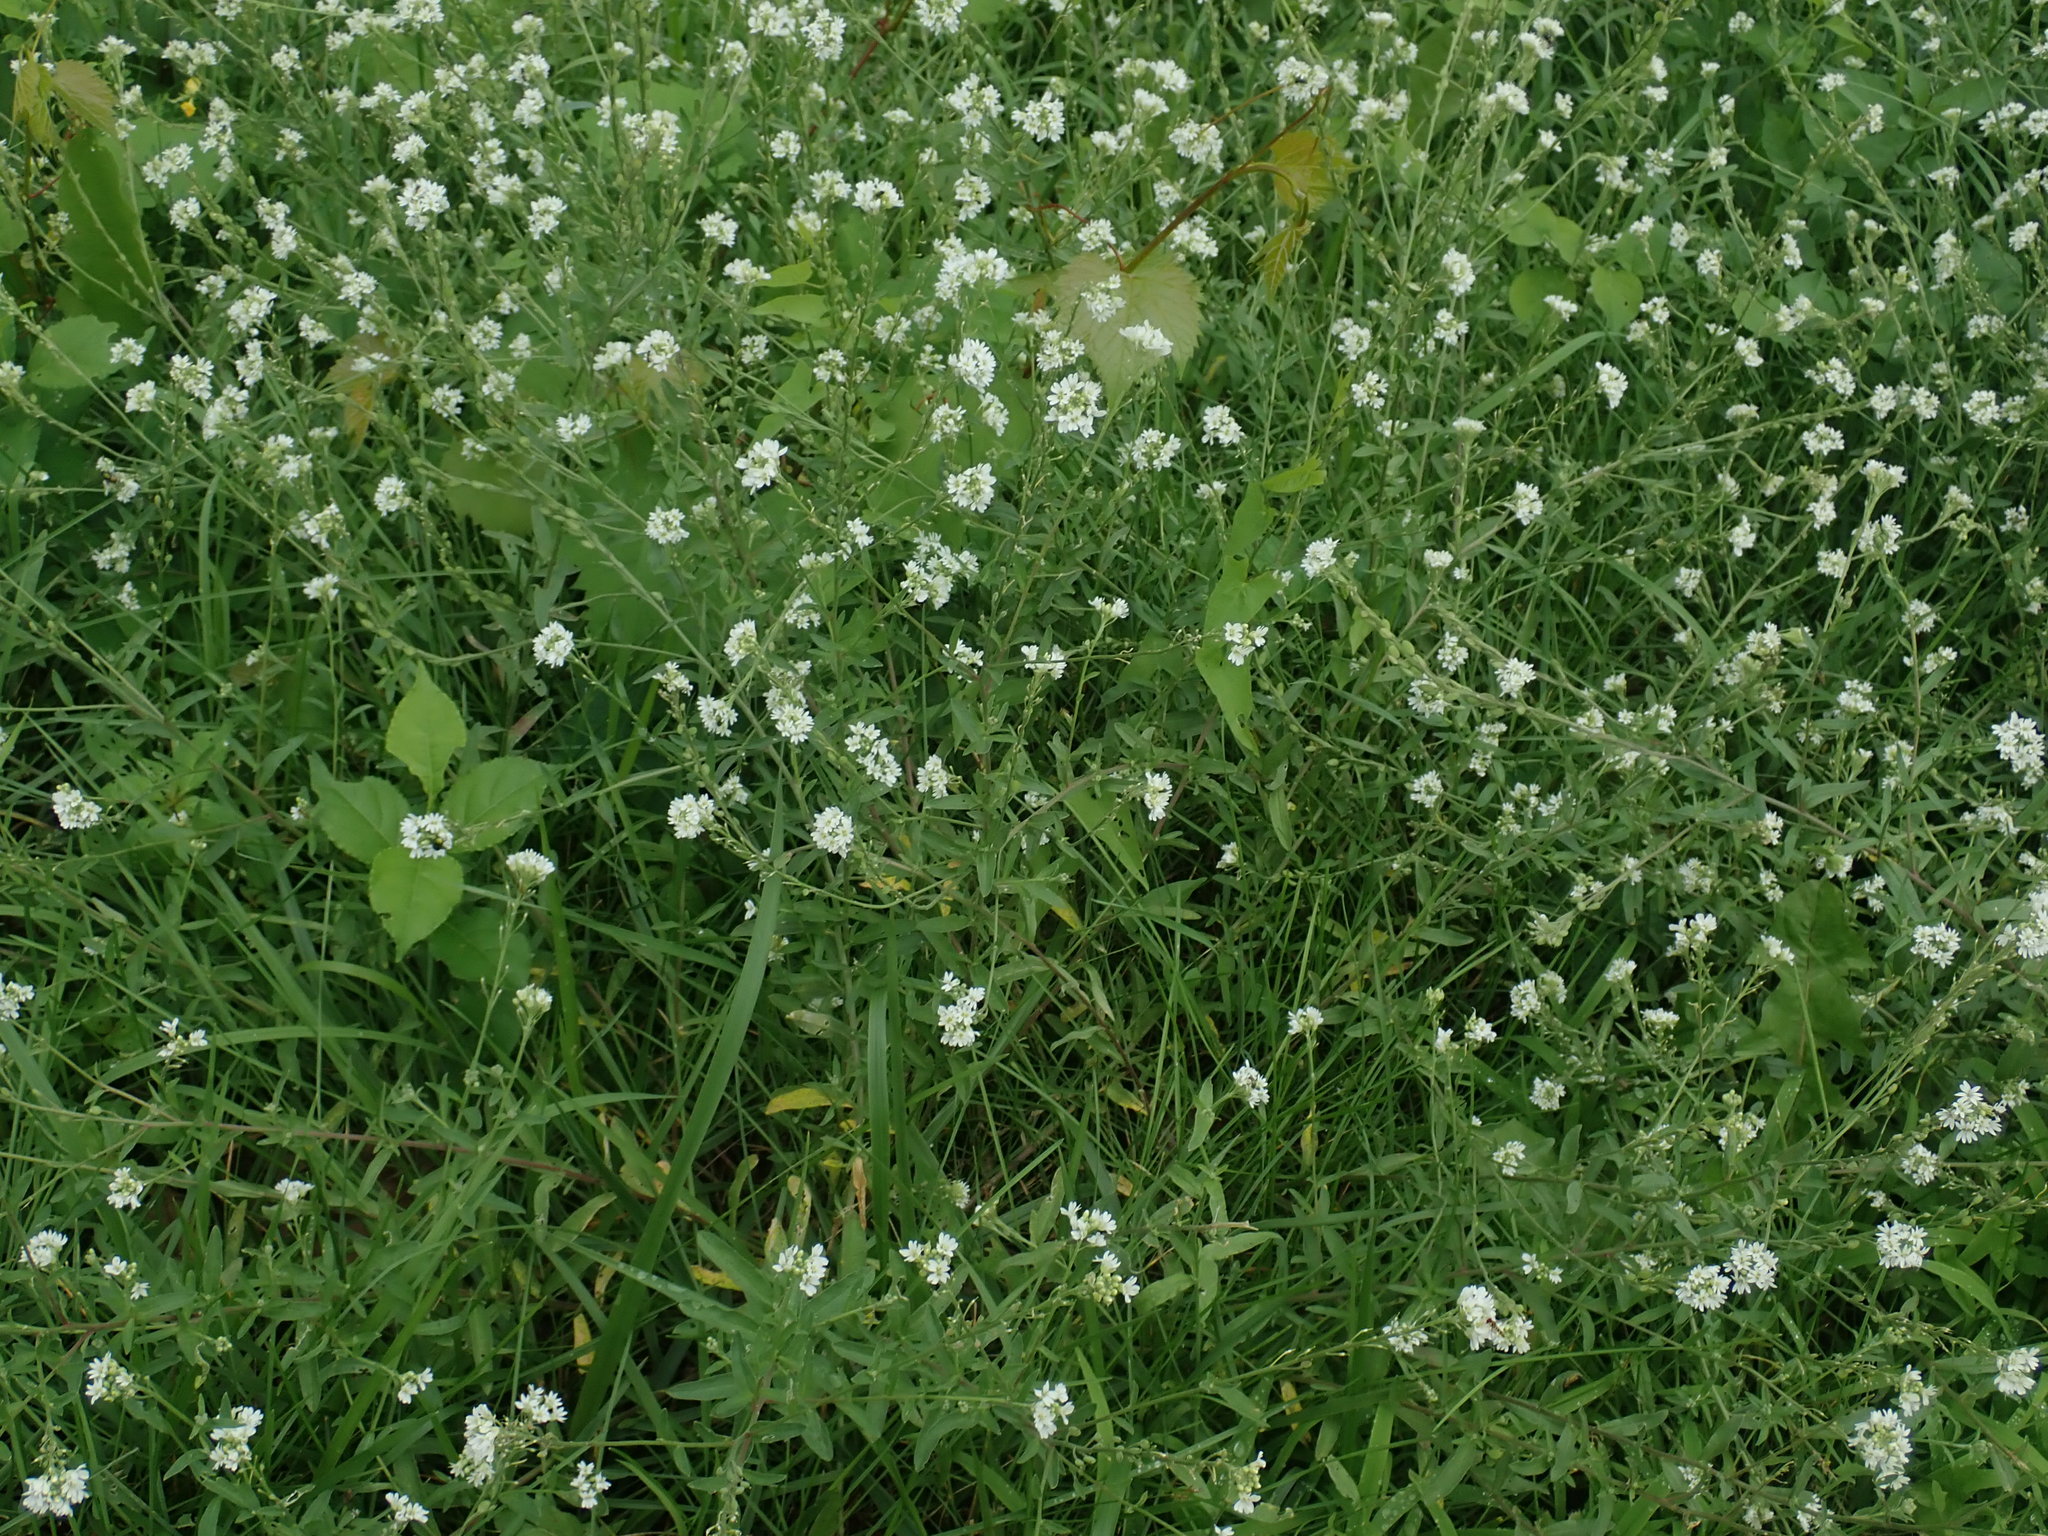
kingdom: Plantae
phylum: Tracheophyta
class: Magnoliopsida
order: Brassicales
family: Brassicaceae
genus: Berteroa
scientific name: Berteroa incana
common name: Hoary alison
